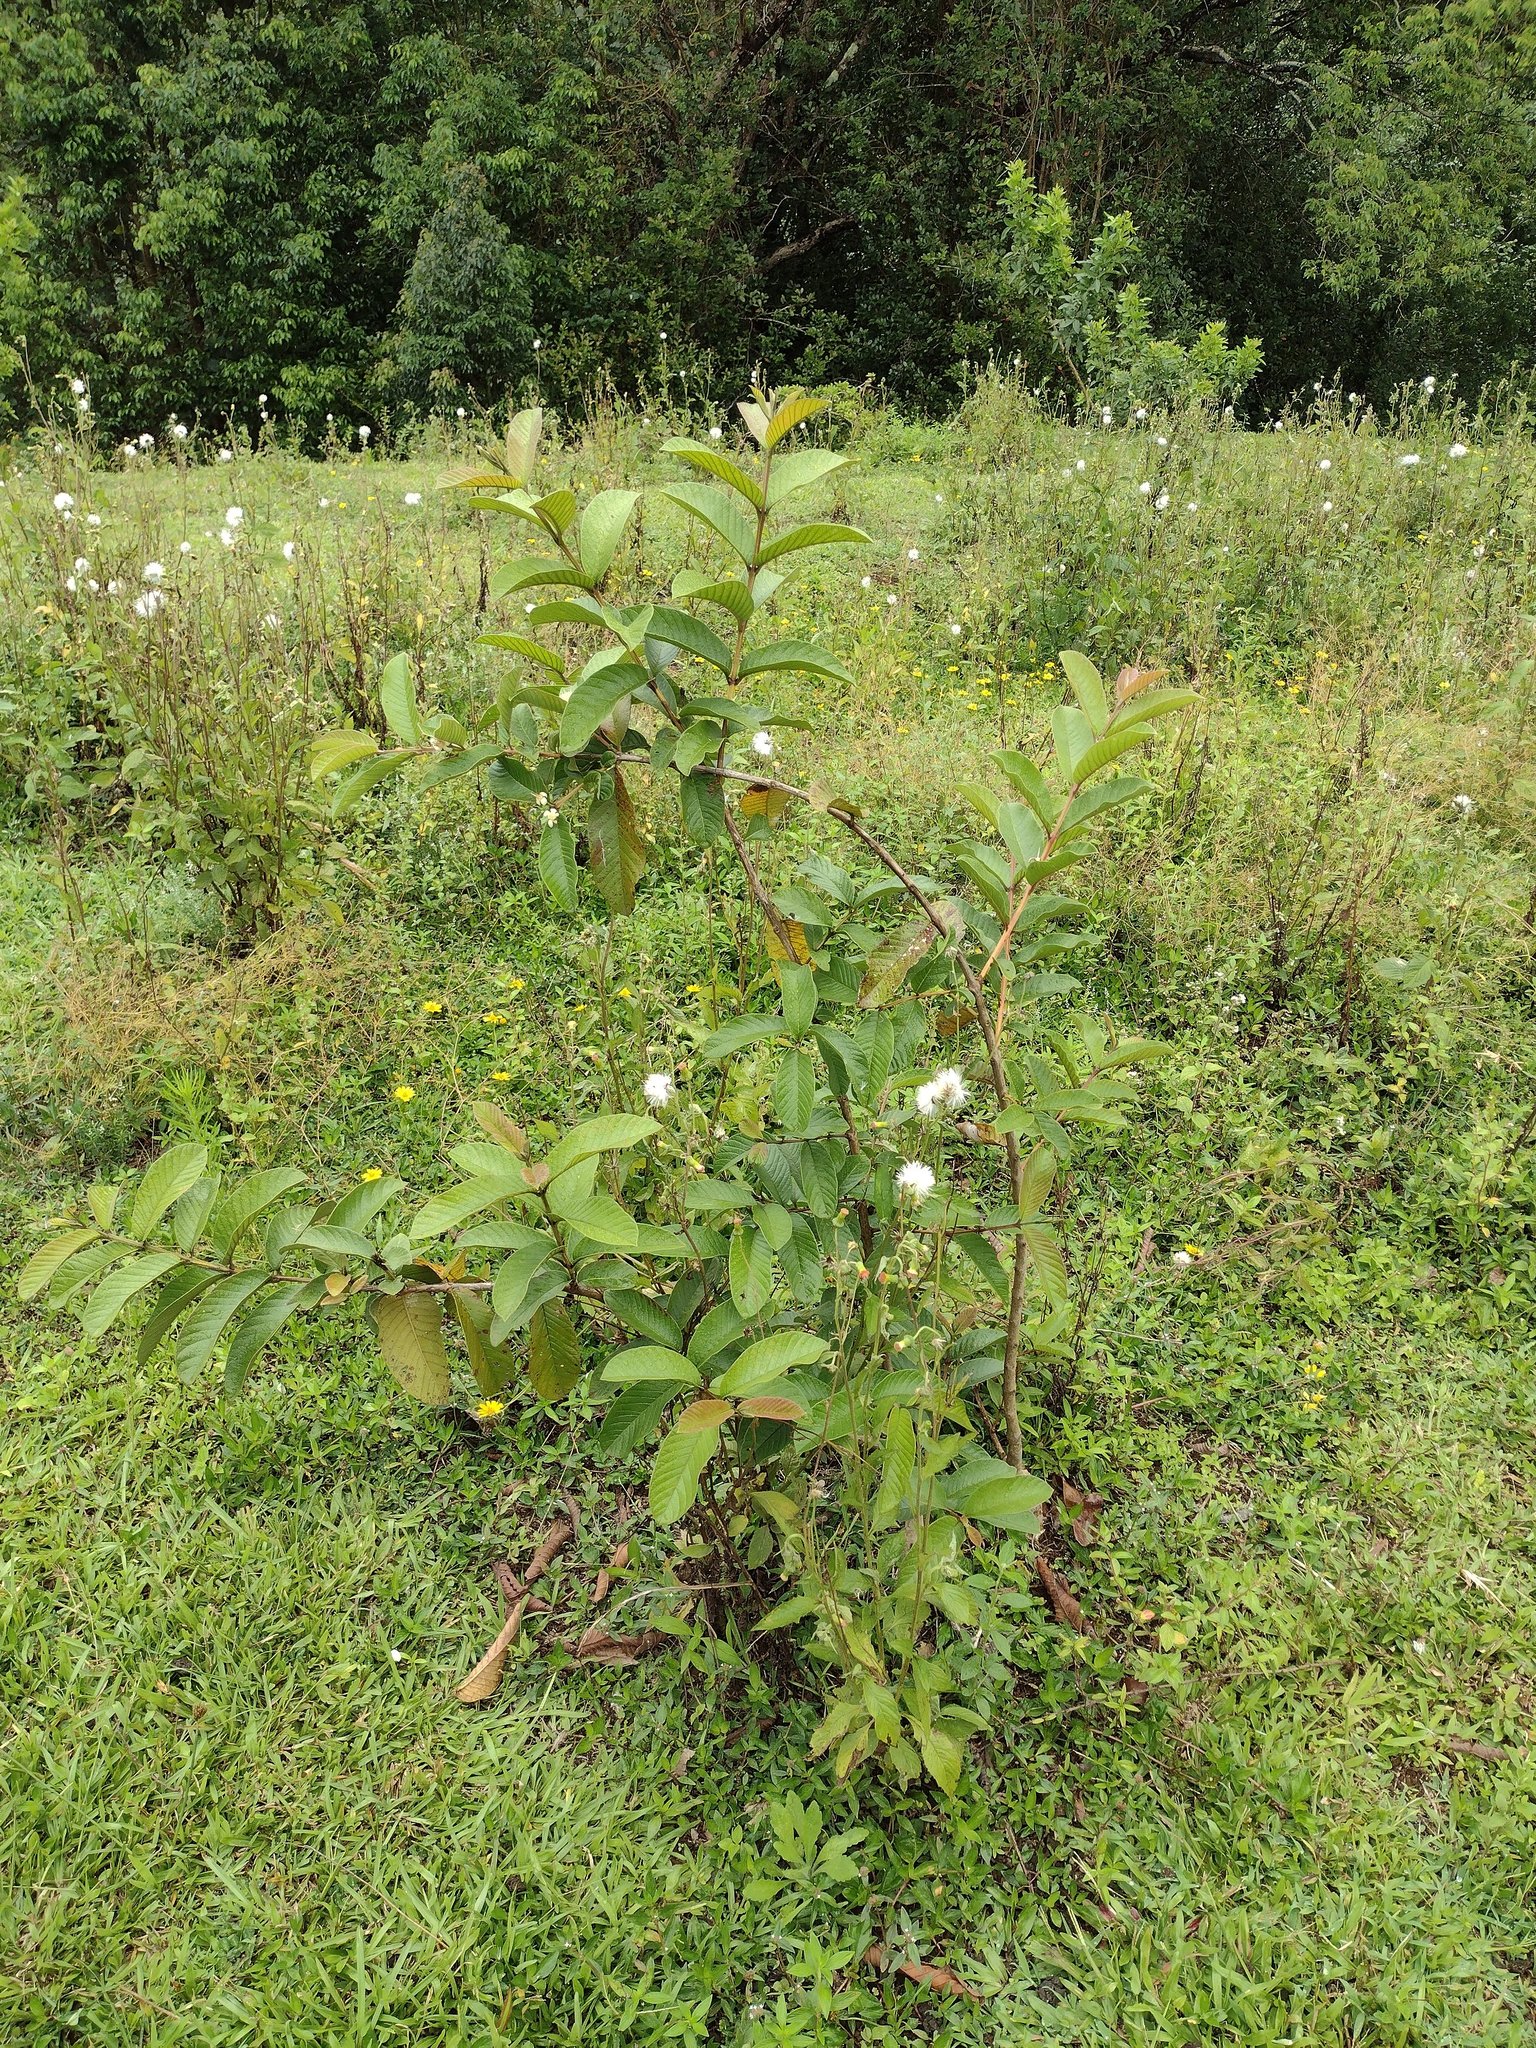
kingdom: Plantae
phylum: Tracheophyta
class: Magnoliopsida
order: Myrtales
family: Myrtaceae
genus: Psidium
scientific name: Psidium guajava
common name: Guava
